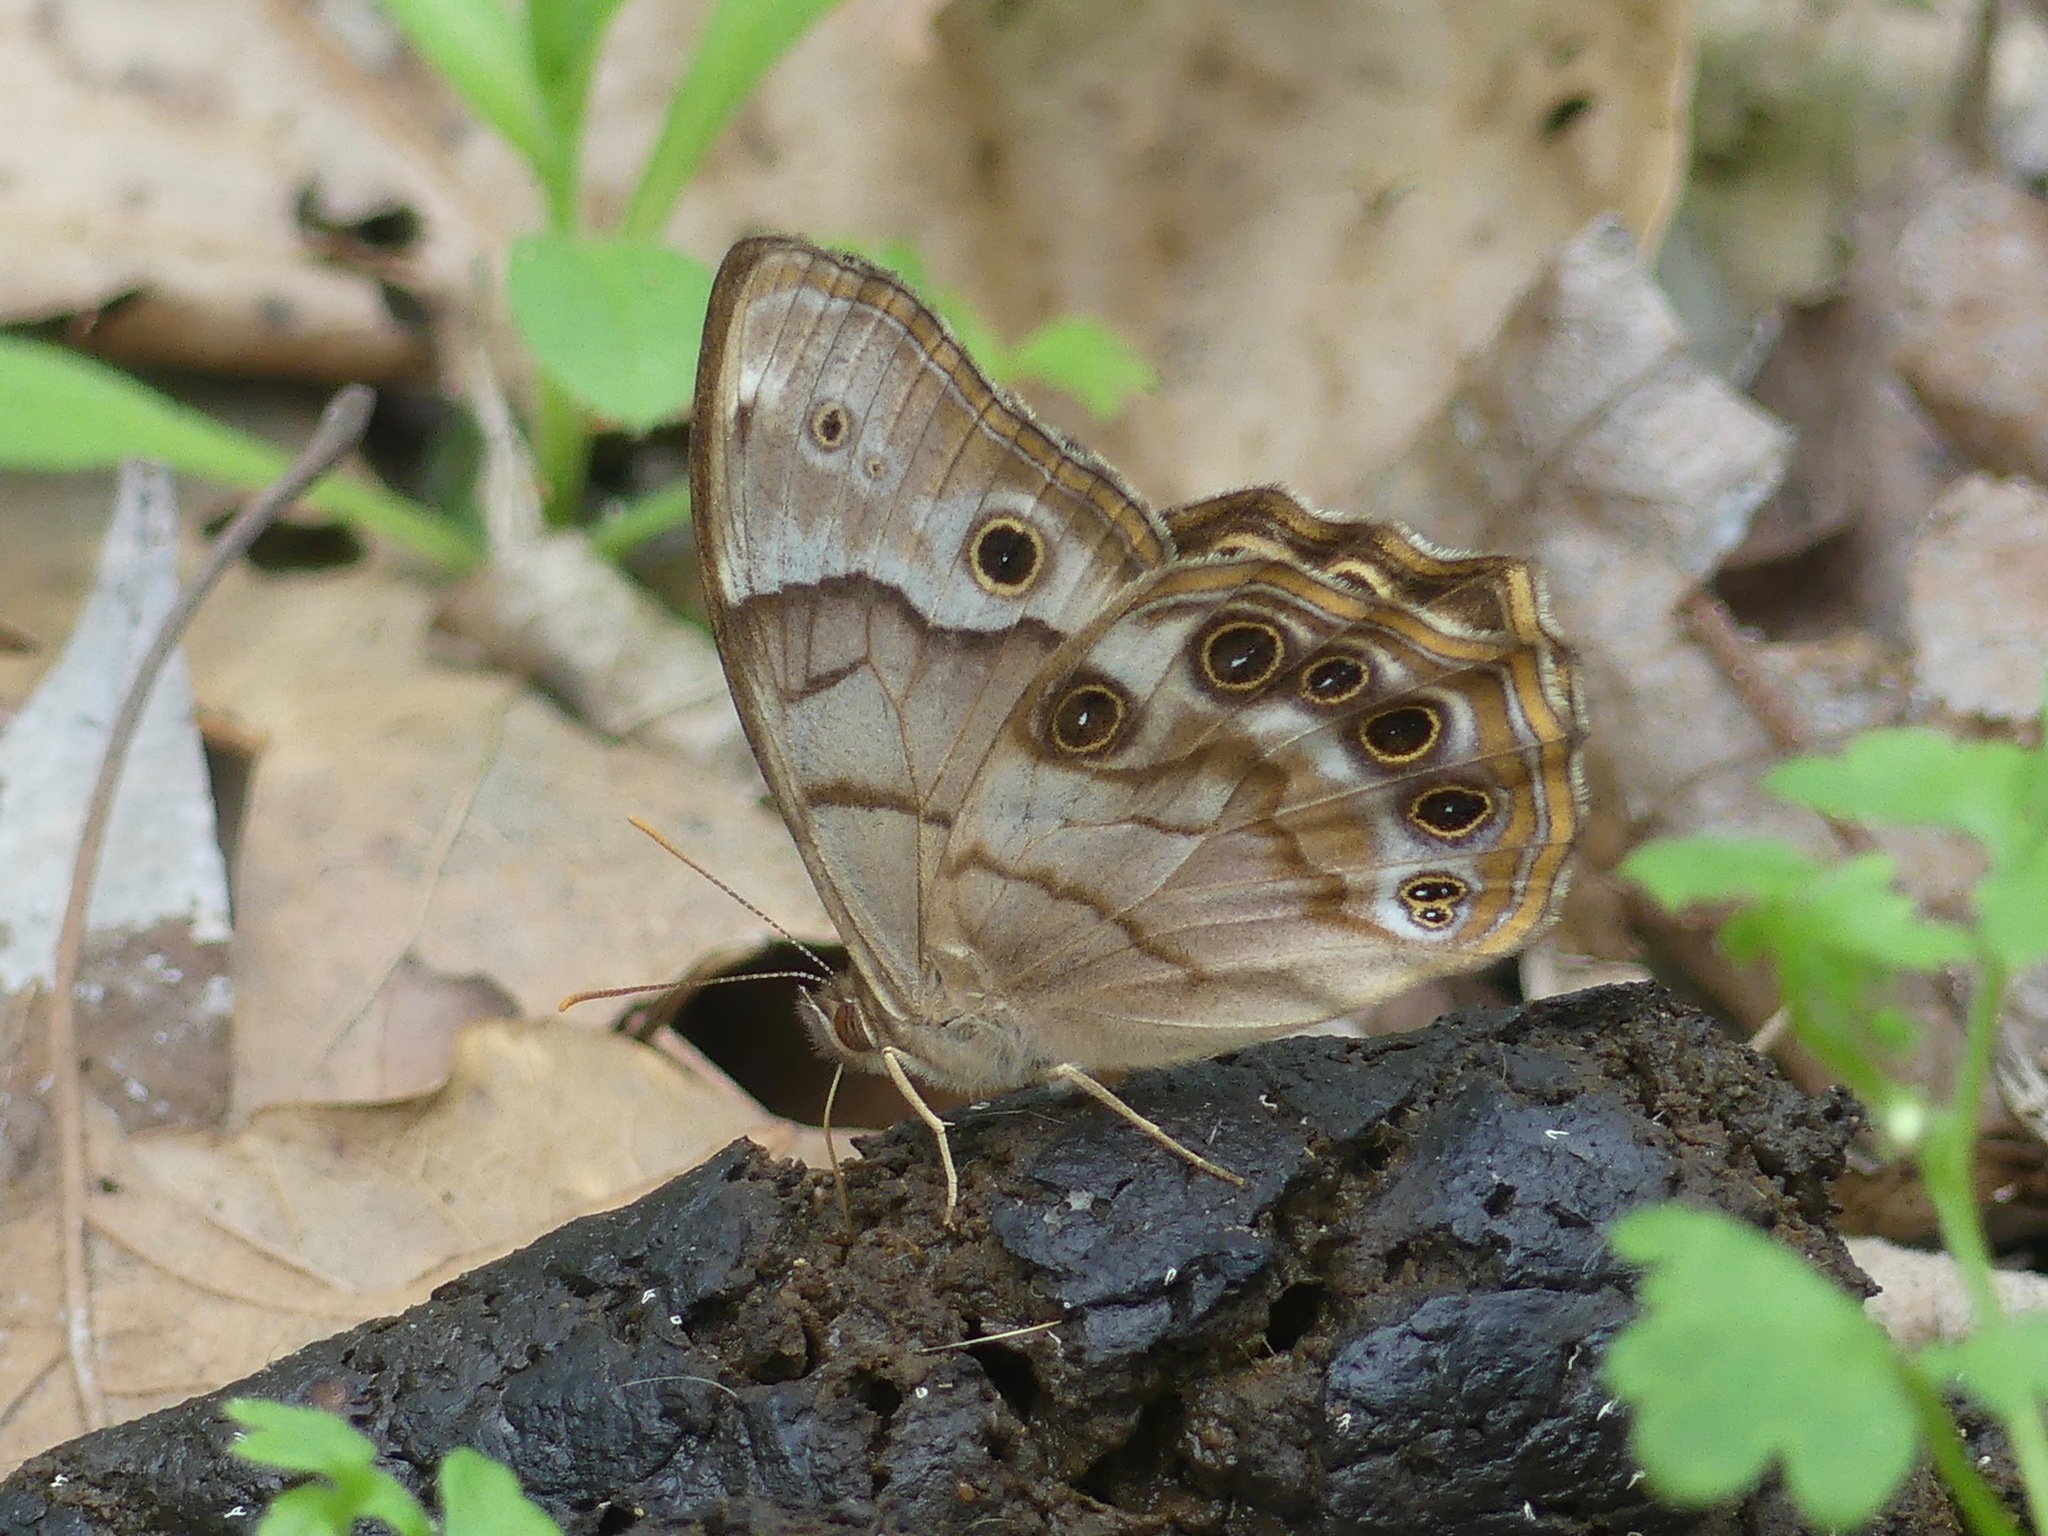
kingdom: Animalia
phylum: Arthropoda
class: Insecta
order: Lepidoptera
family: Nymphalidae
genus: Enodia
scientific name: Enodia portlandia
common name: Southern pearly-eye
